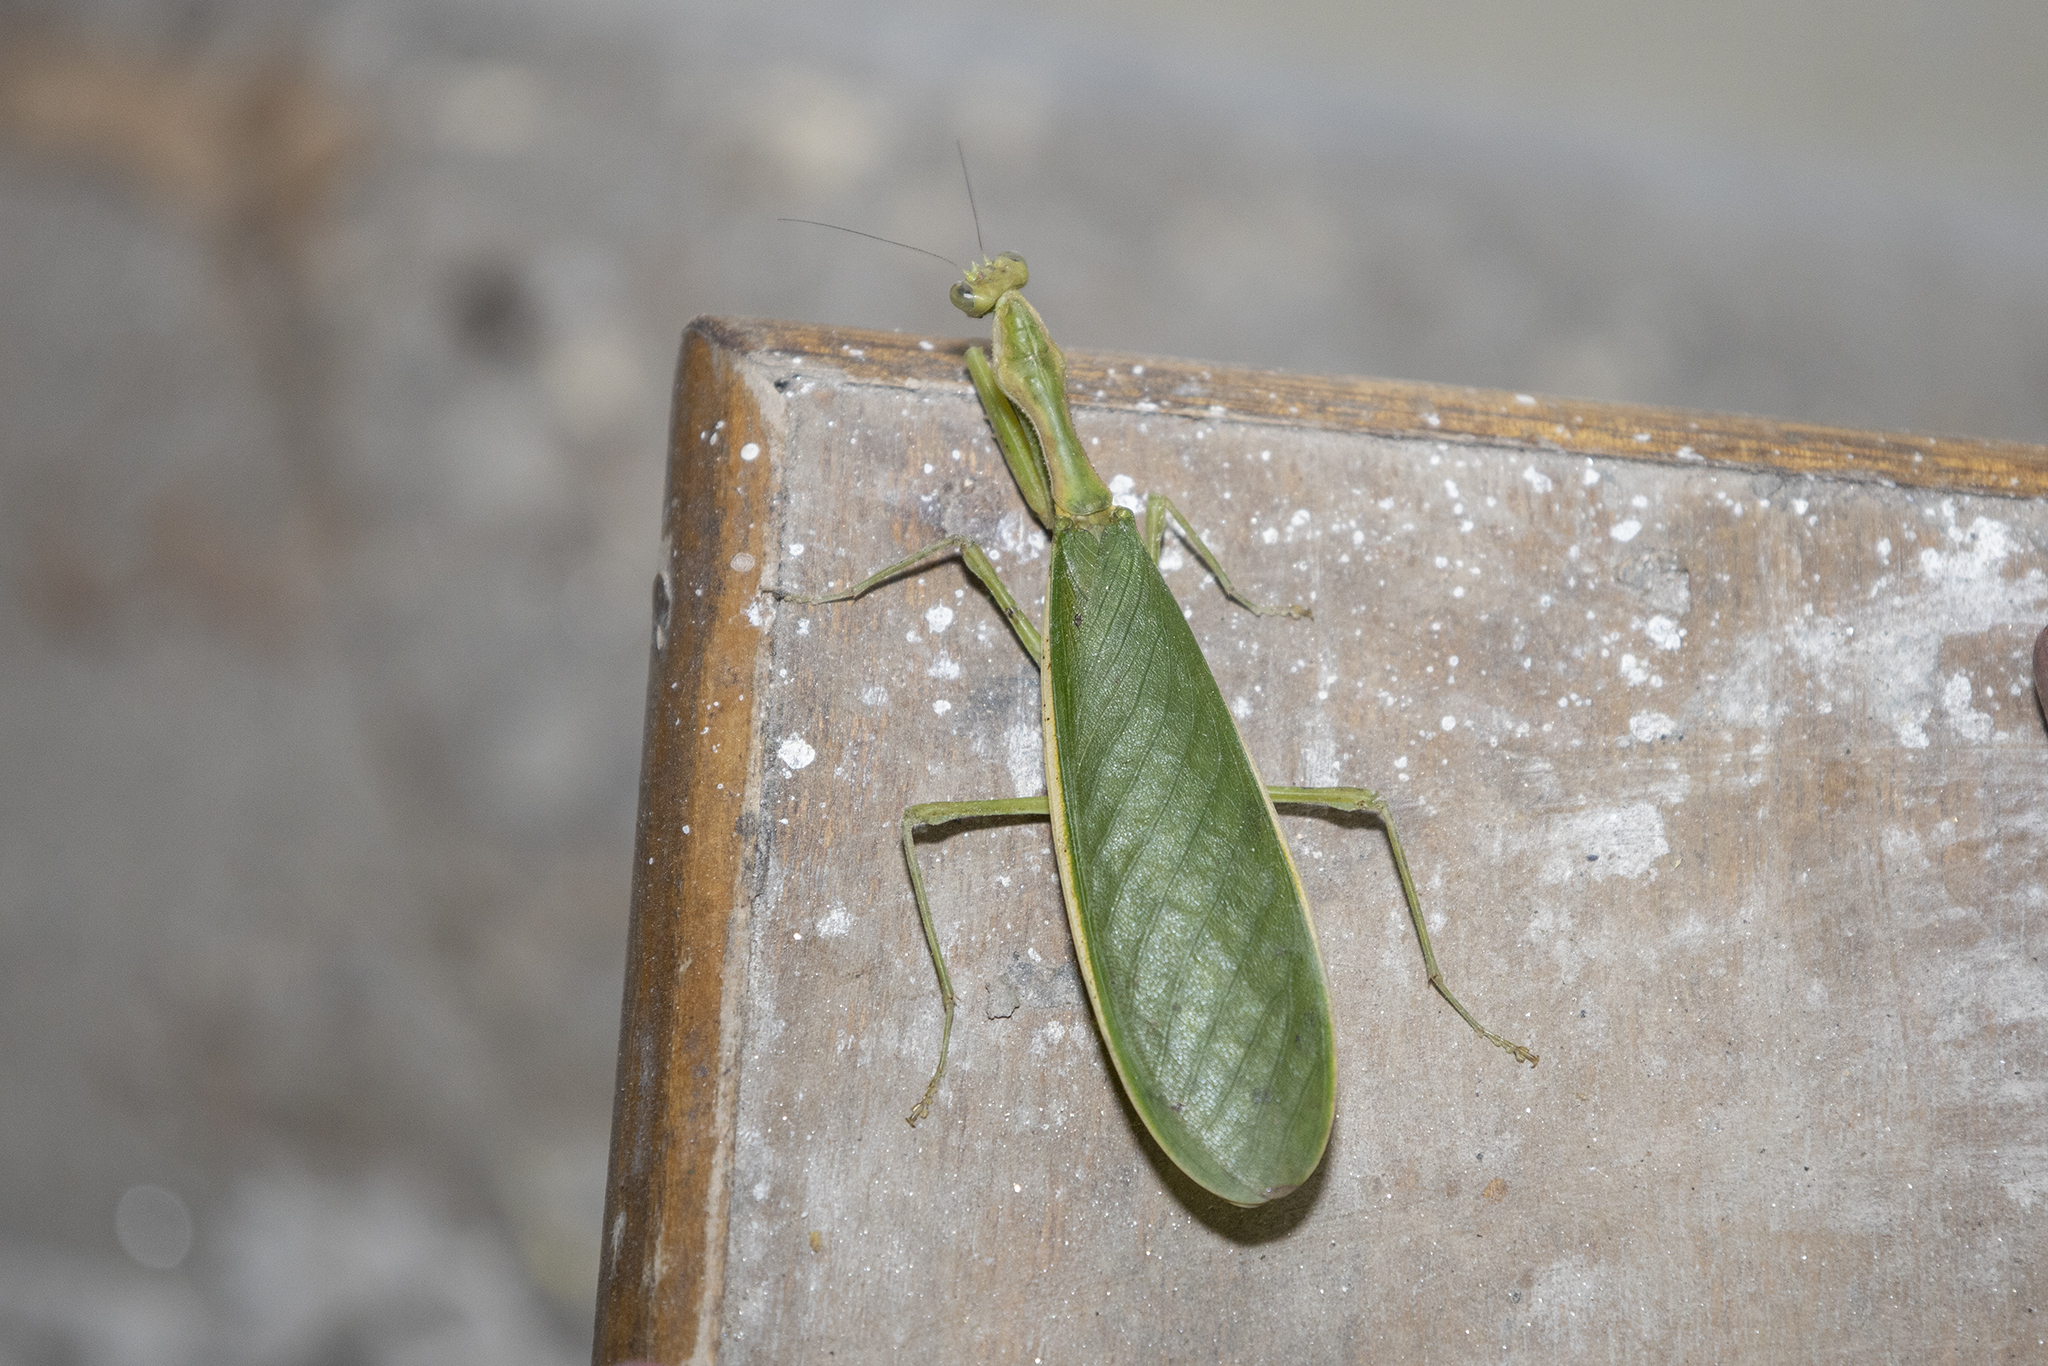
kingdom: Animalia
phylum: Arthropoda
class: Insecta
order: Mantodea
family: Hymenopodidae
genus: Heliomantis
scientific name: Heliomantis elegans
